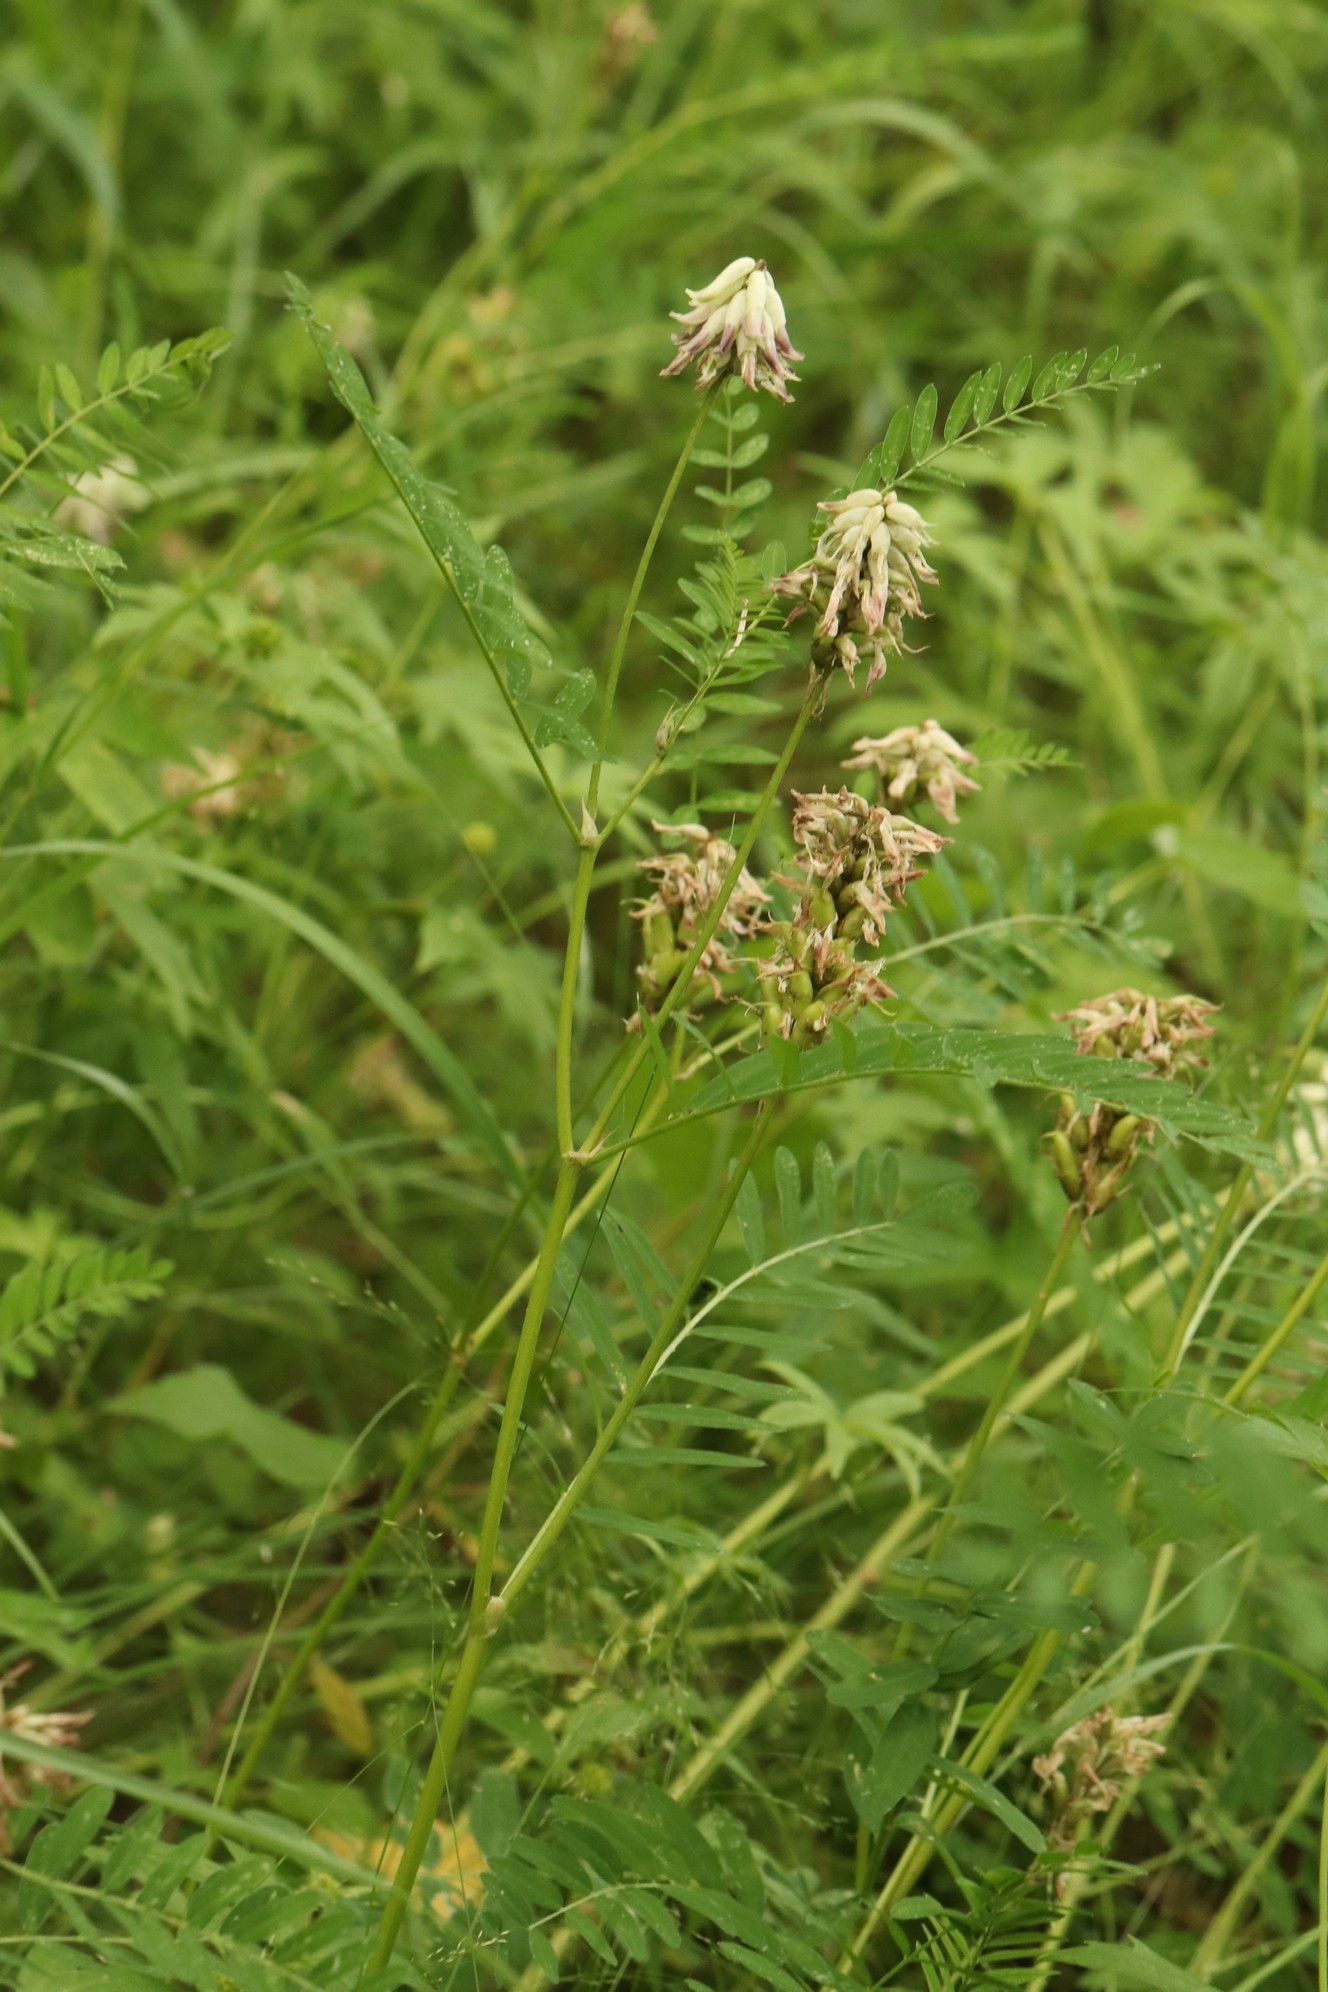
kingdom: Plantae
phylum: Tracheophyta
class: Magnoliopsida
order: Fabales
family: Fabaceae
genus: Astragalus
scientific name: Astragalus uliginosus
